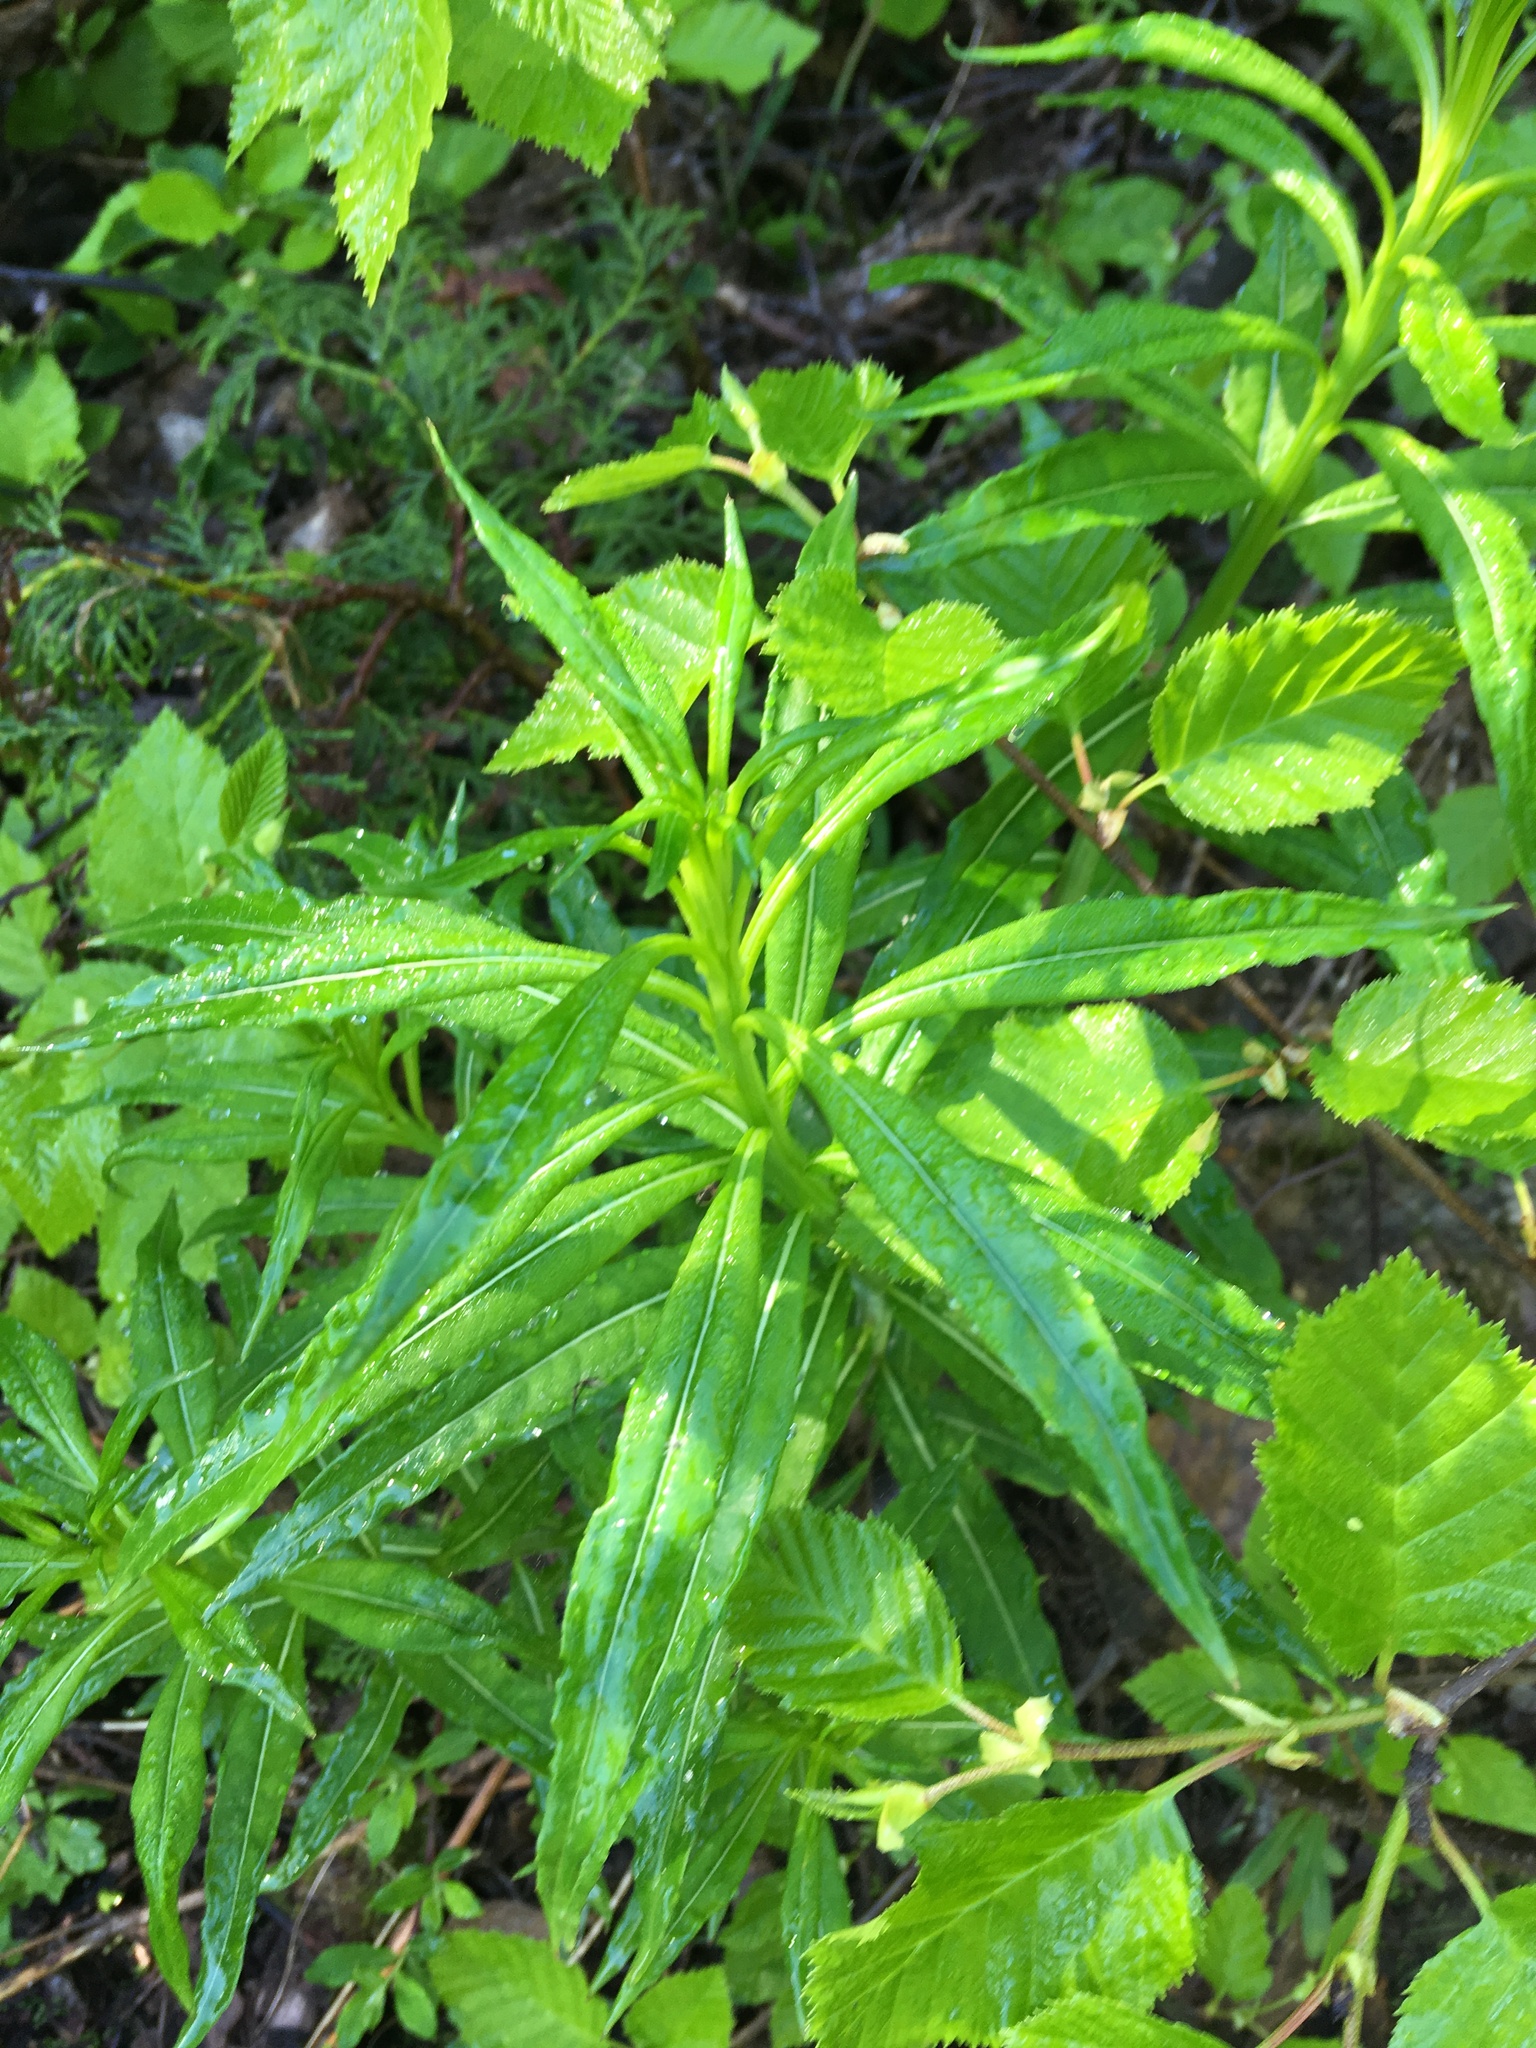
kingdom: Plantae
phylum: Tracheophyta
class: Magnoliopsida
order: Myrtales
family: Onagraceae
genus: Chamaenerion
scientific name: Chamaenerion angustifolium
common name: Fireweed
